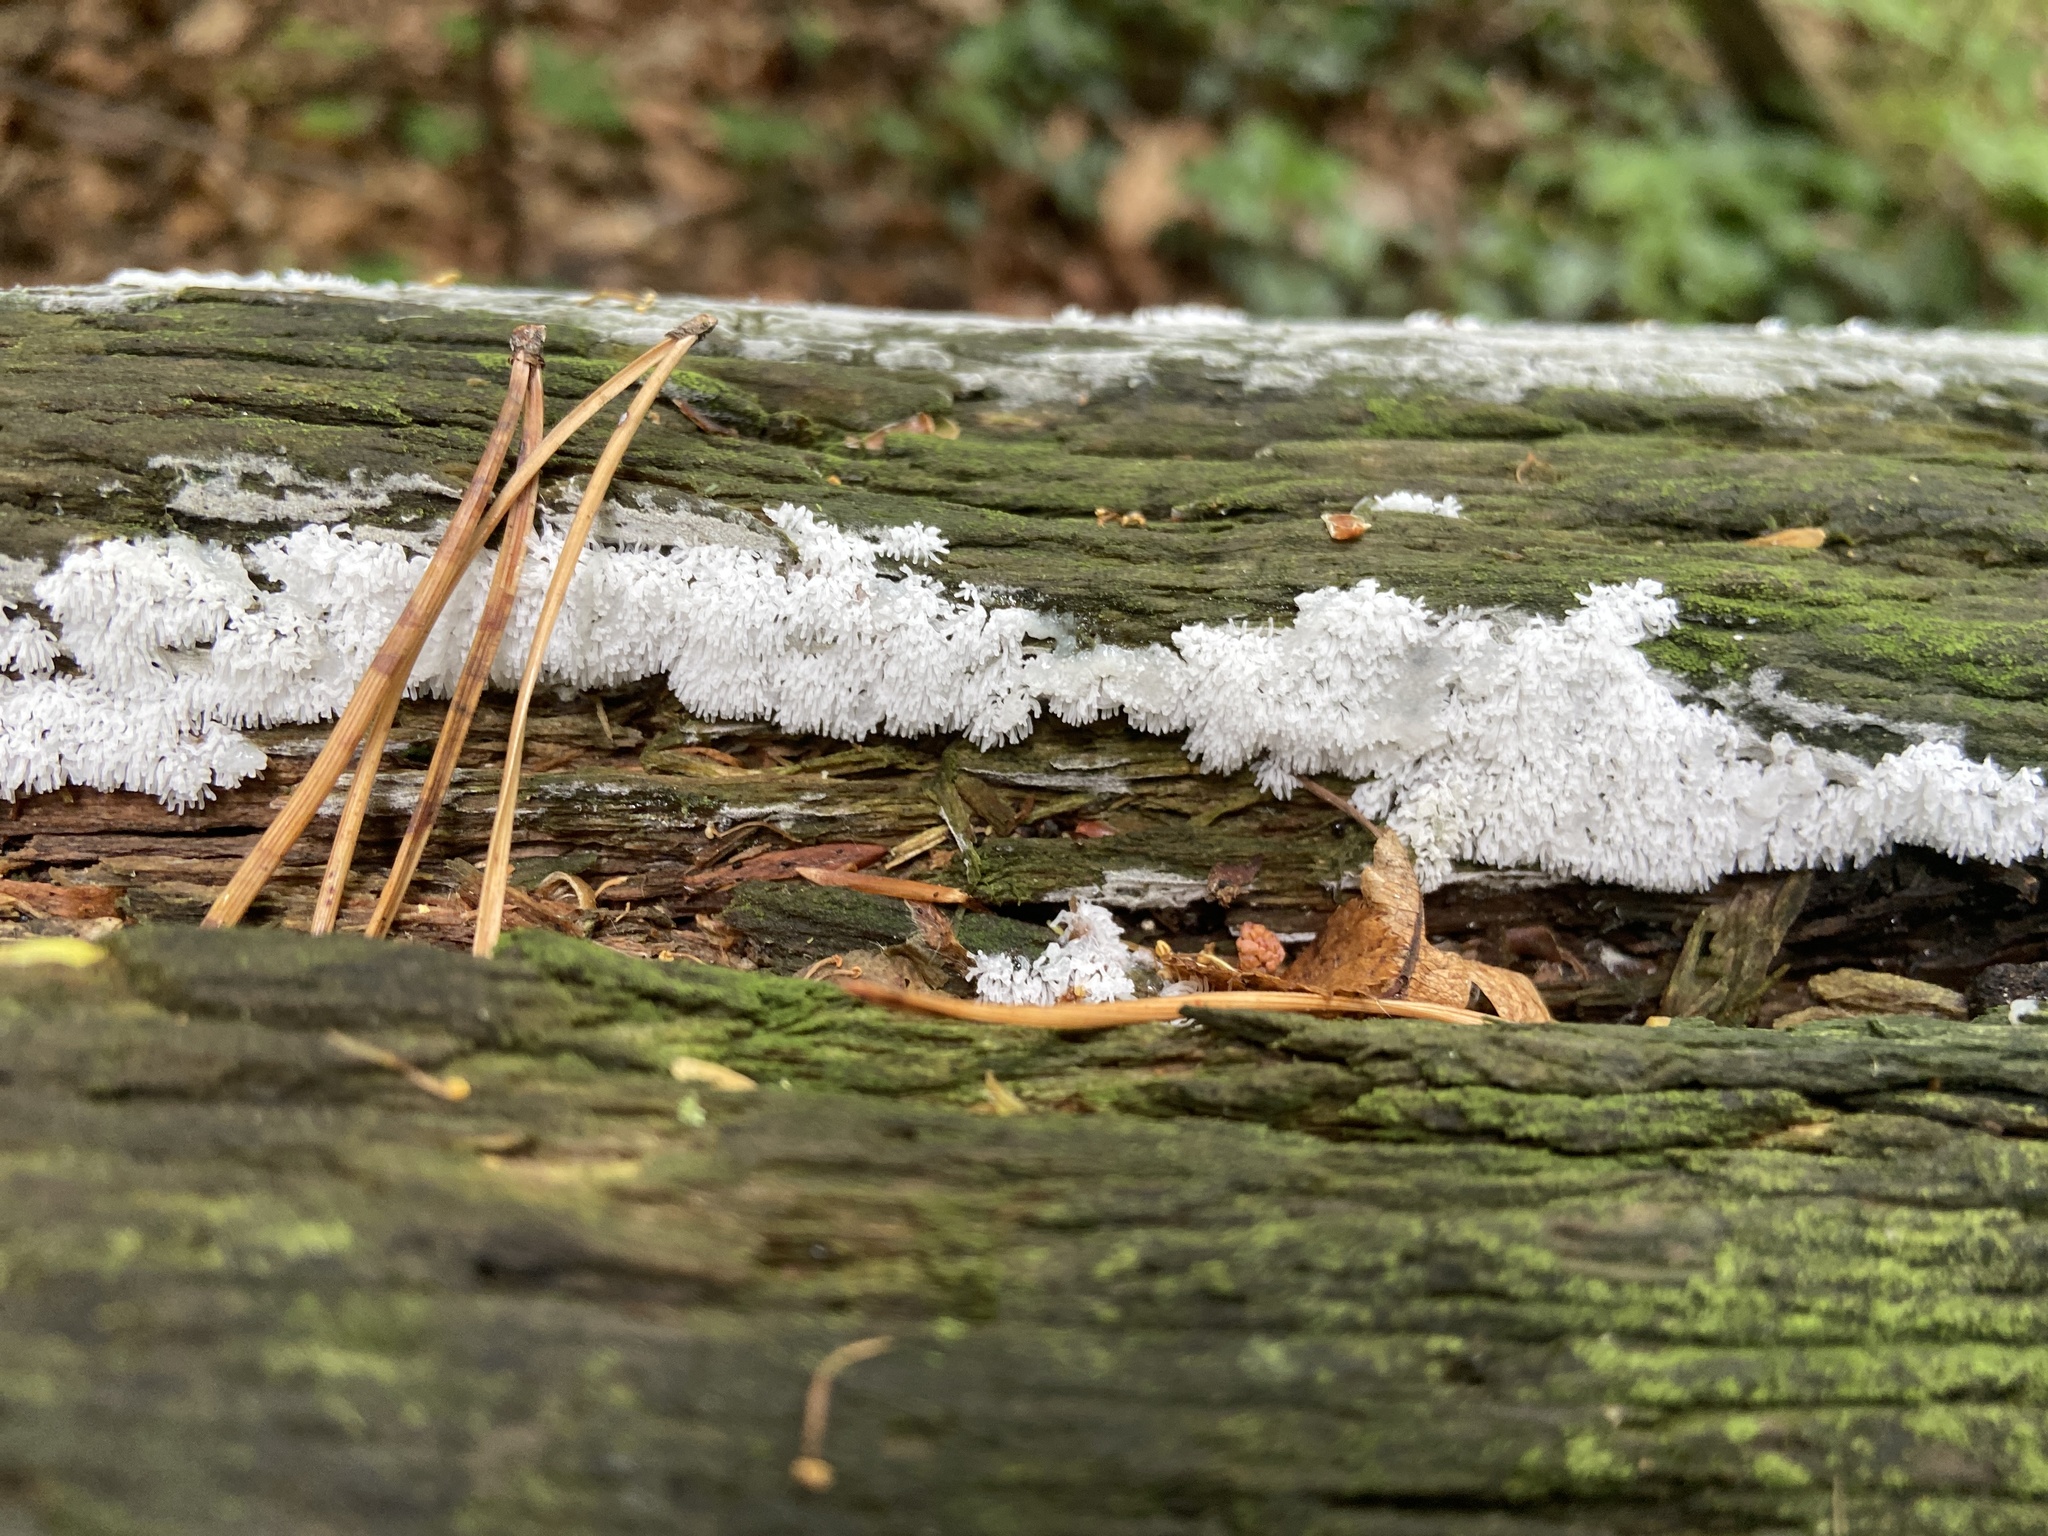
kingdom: Protozoa
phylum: Mycetozoa
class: Protosteliomycetes
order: Ceratiomyxales
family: Ceratiomyxaceae
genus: Ceratiomyxa
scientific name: Ceratiomyxa fruticulosa
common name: Honeycomb coral slime mold
